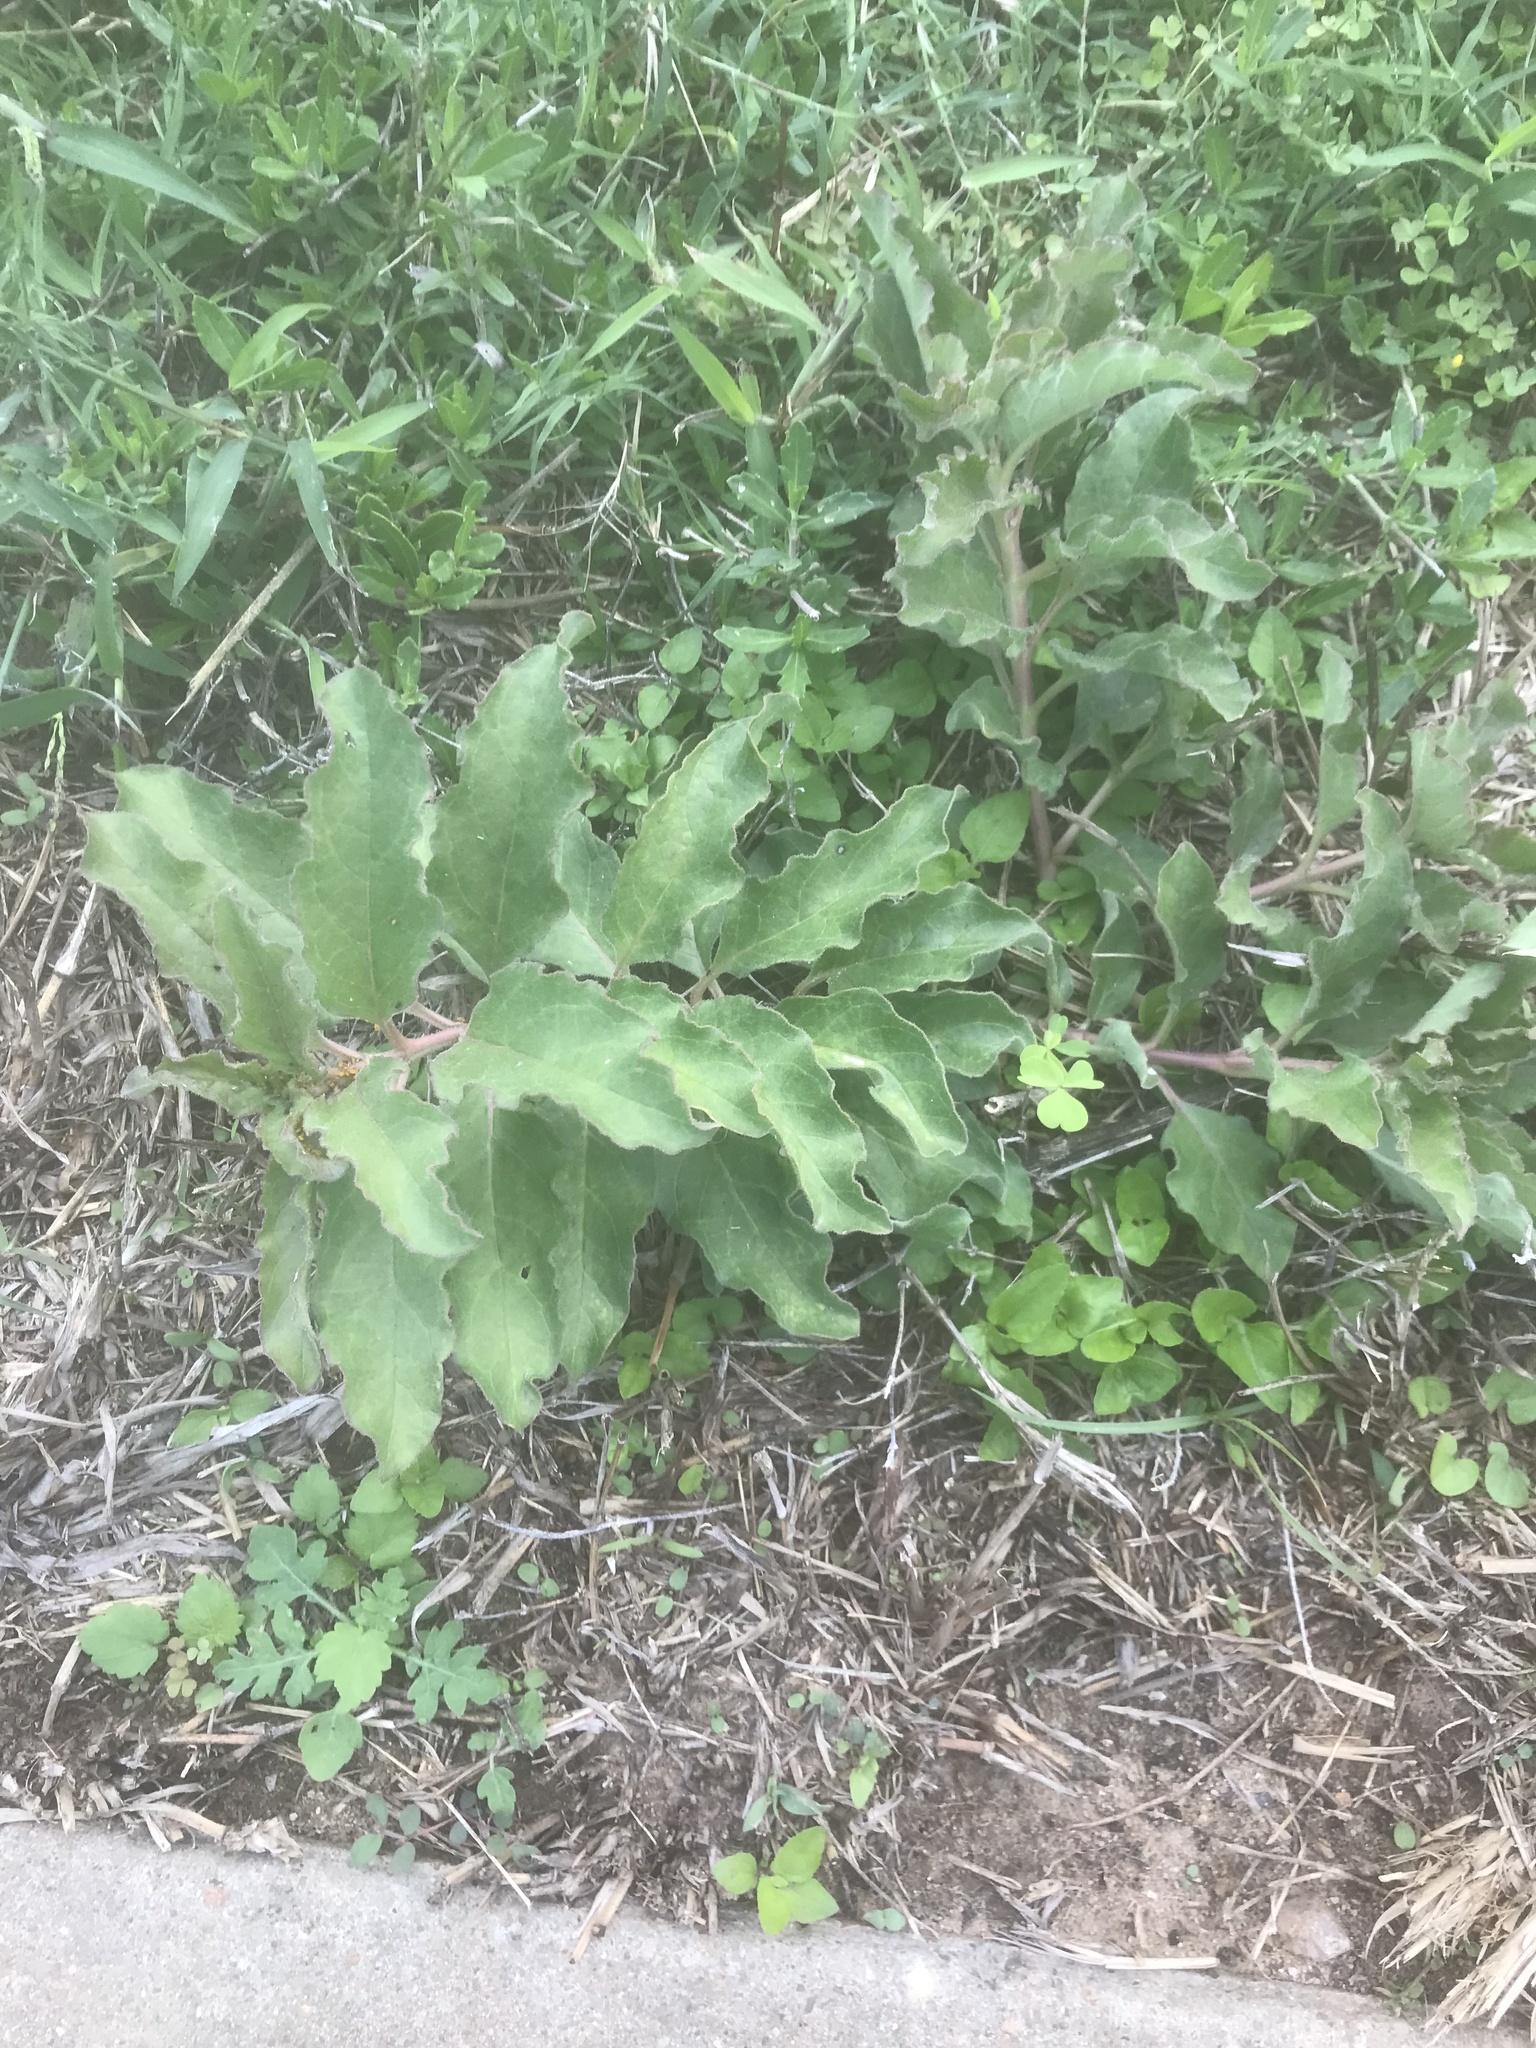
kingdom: Plantae
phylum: Tracheophyta
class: Magnoliopsida
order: Gentianales
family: Apocynaceae
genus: Asclepias
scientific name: Asclepias oenotheroides
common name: Zizotes milkweed
